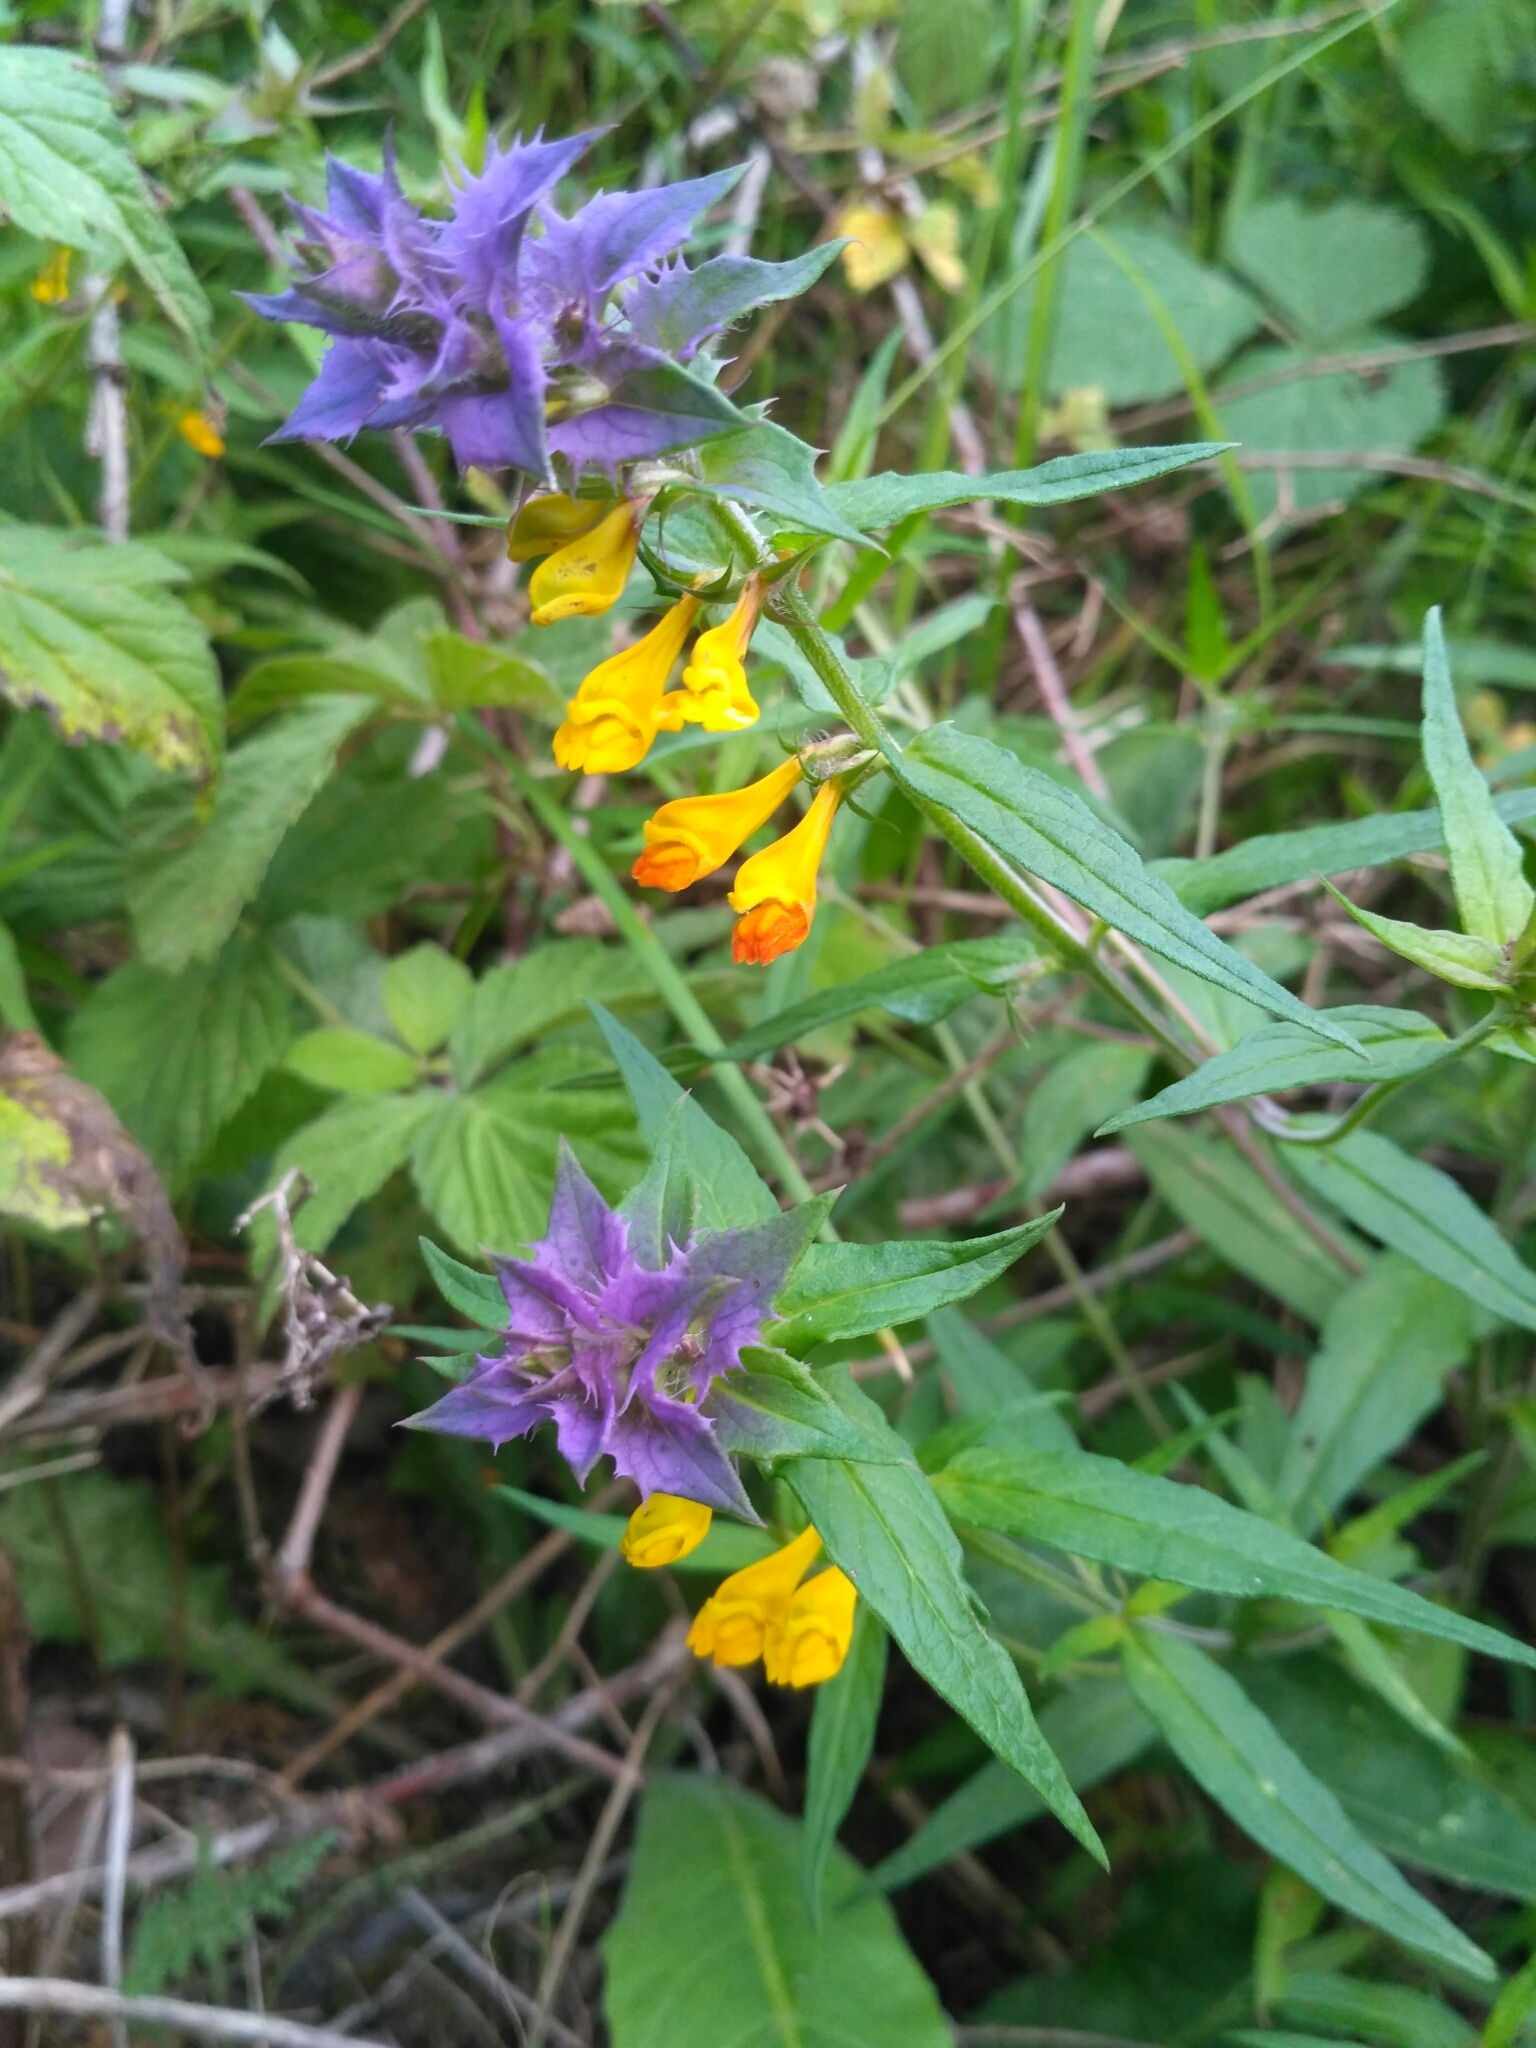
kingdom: Plantae
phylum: Tracheophyta
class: Magnoliopsida
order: Lamiales
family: Orobanchaceae
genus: Melampyrum
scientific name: Melampyrum nemorosum
